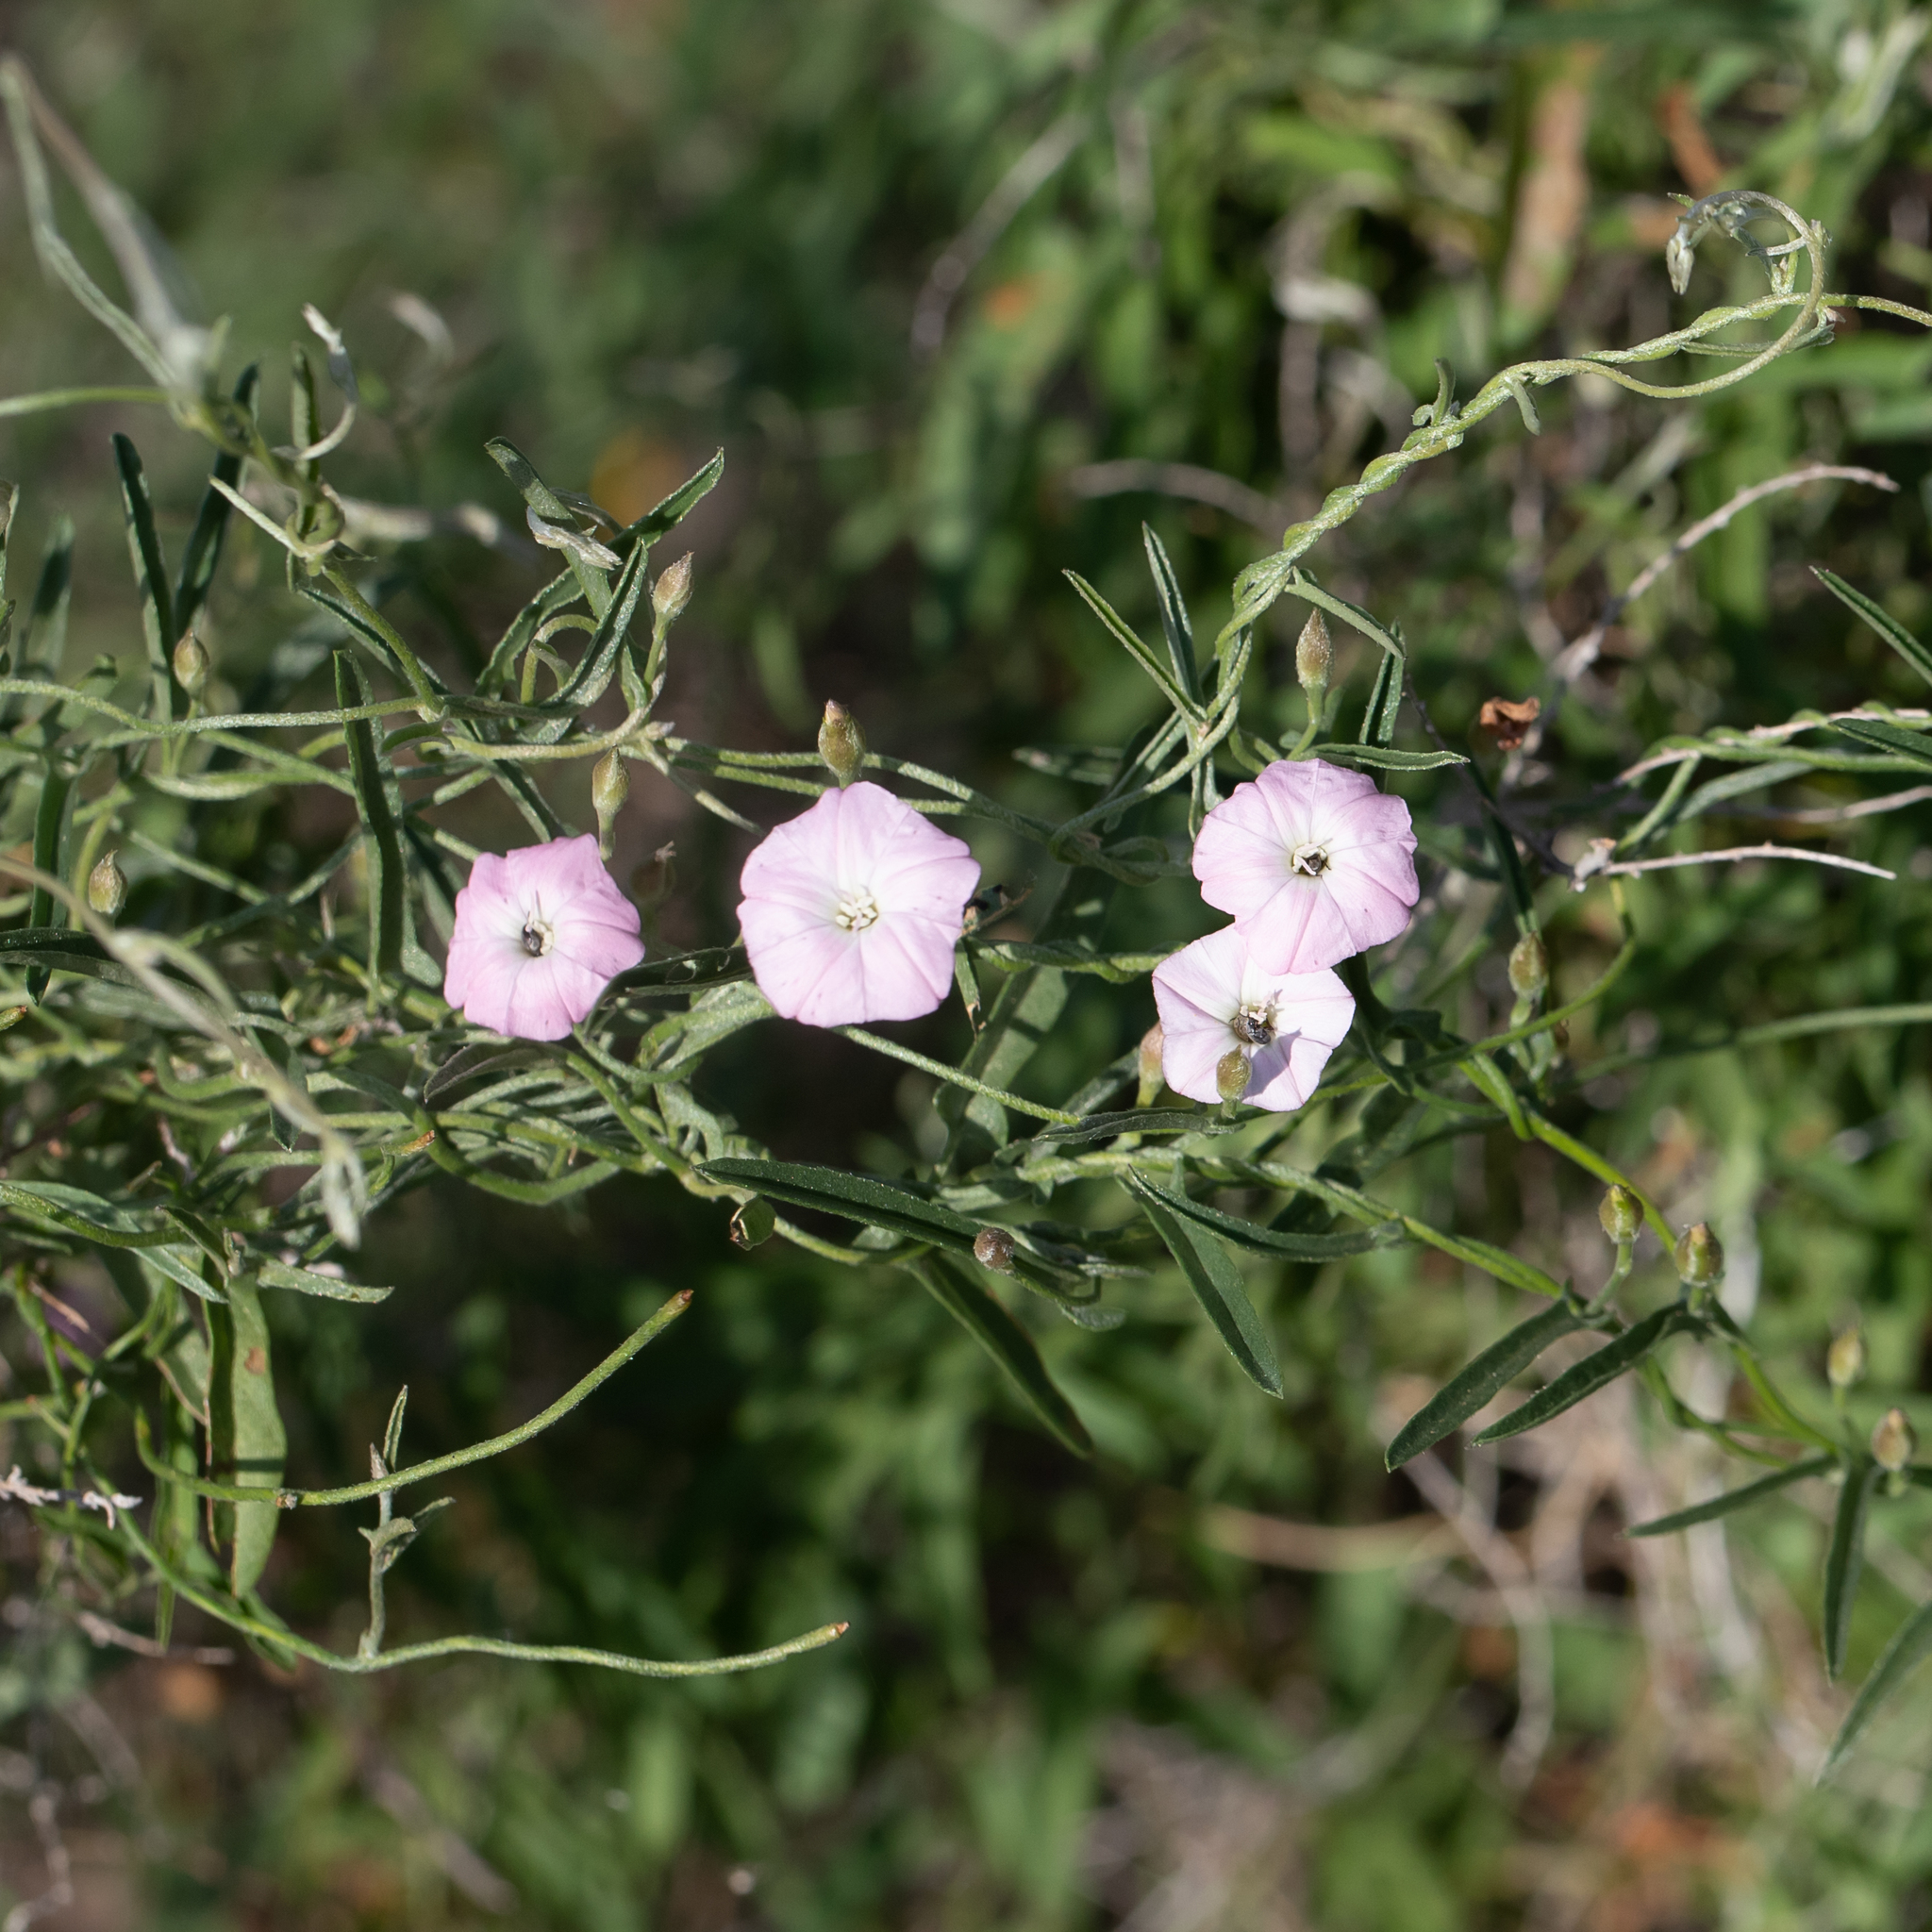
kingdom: Plantae
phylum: Tracheophyta
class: Magnoliopsida
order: Solanales
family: Convolvulaceae
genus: Convolvulus
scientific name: Convolvulus remotus
